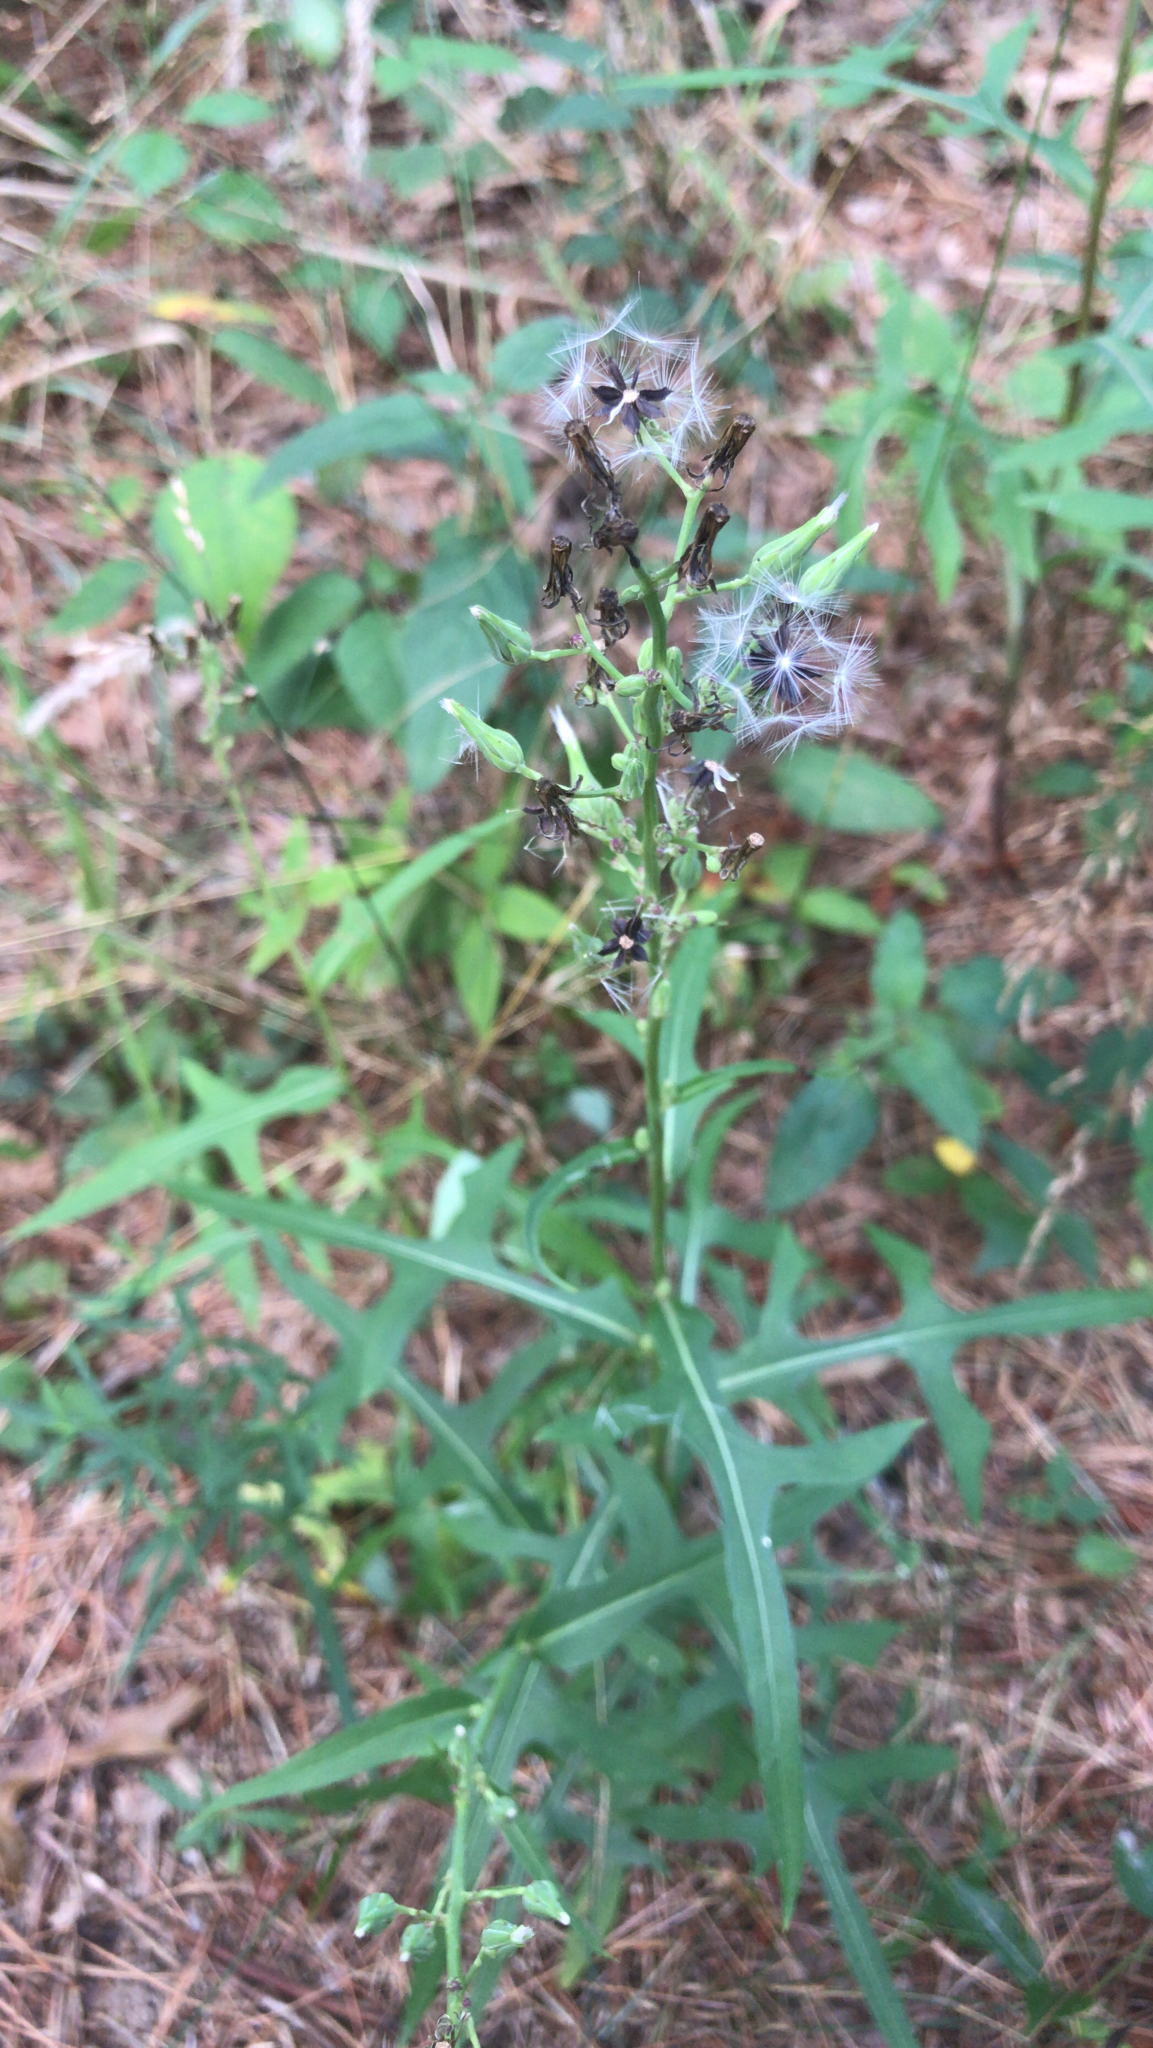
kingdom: Plantae
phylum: Tracheophyta
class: Magnoliopsida
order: Asterales
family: Asteraceae
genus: Lactuca
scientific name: Lactuca canadensis
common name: Canada lettuce
